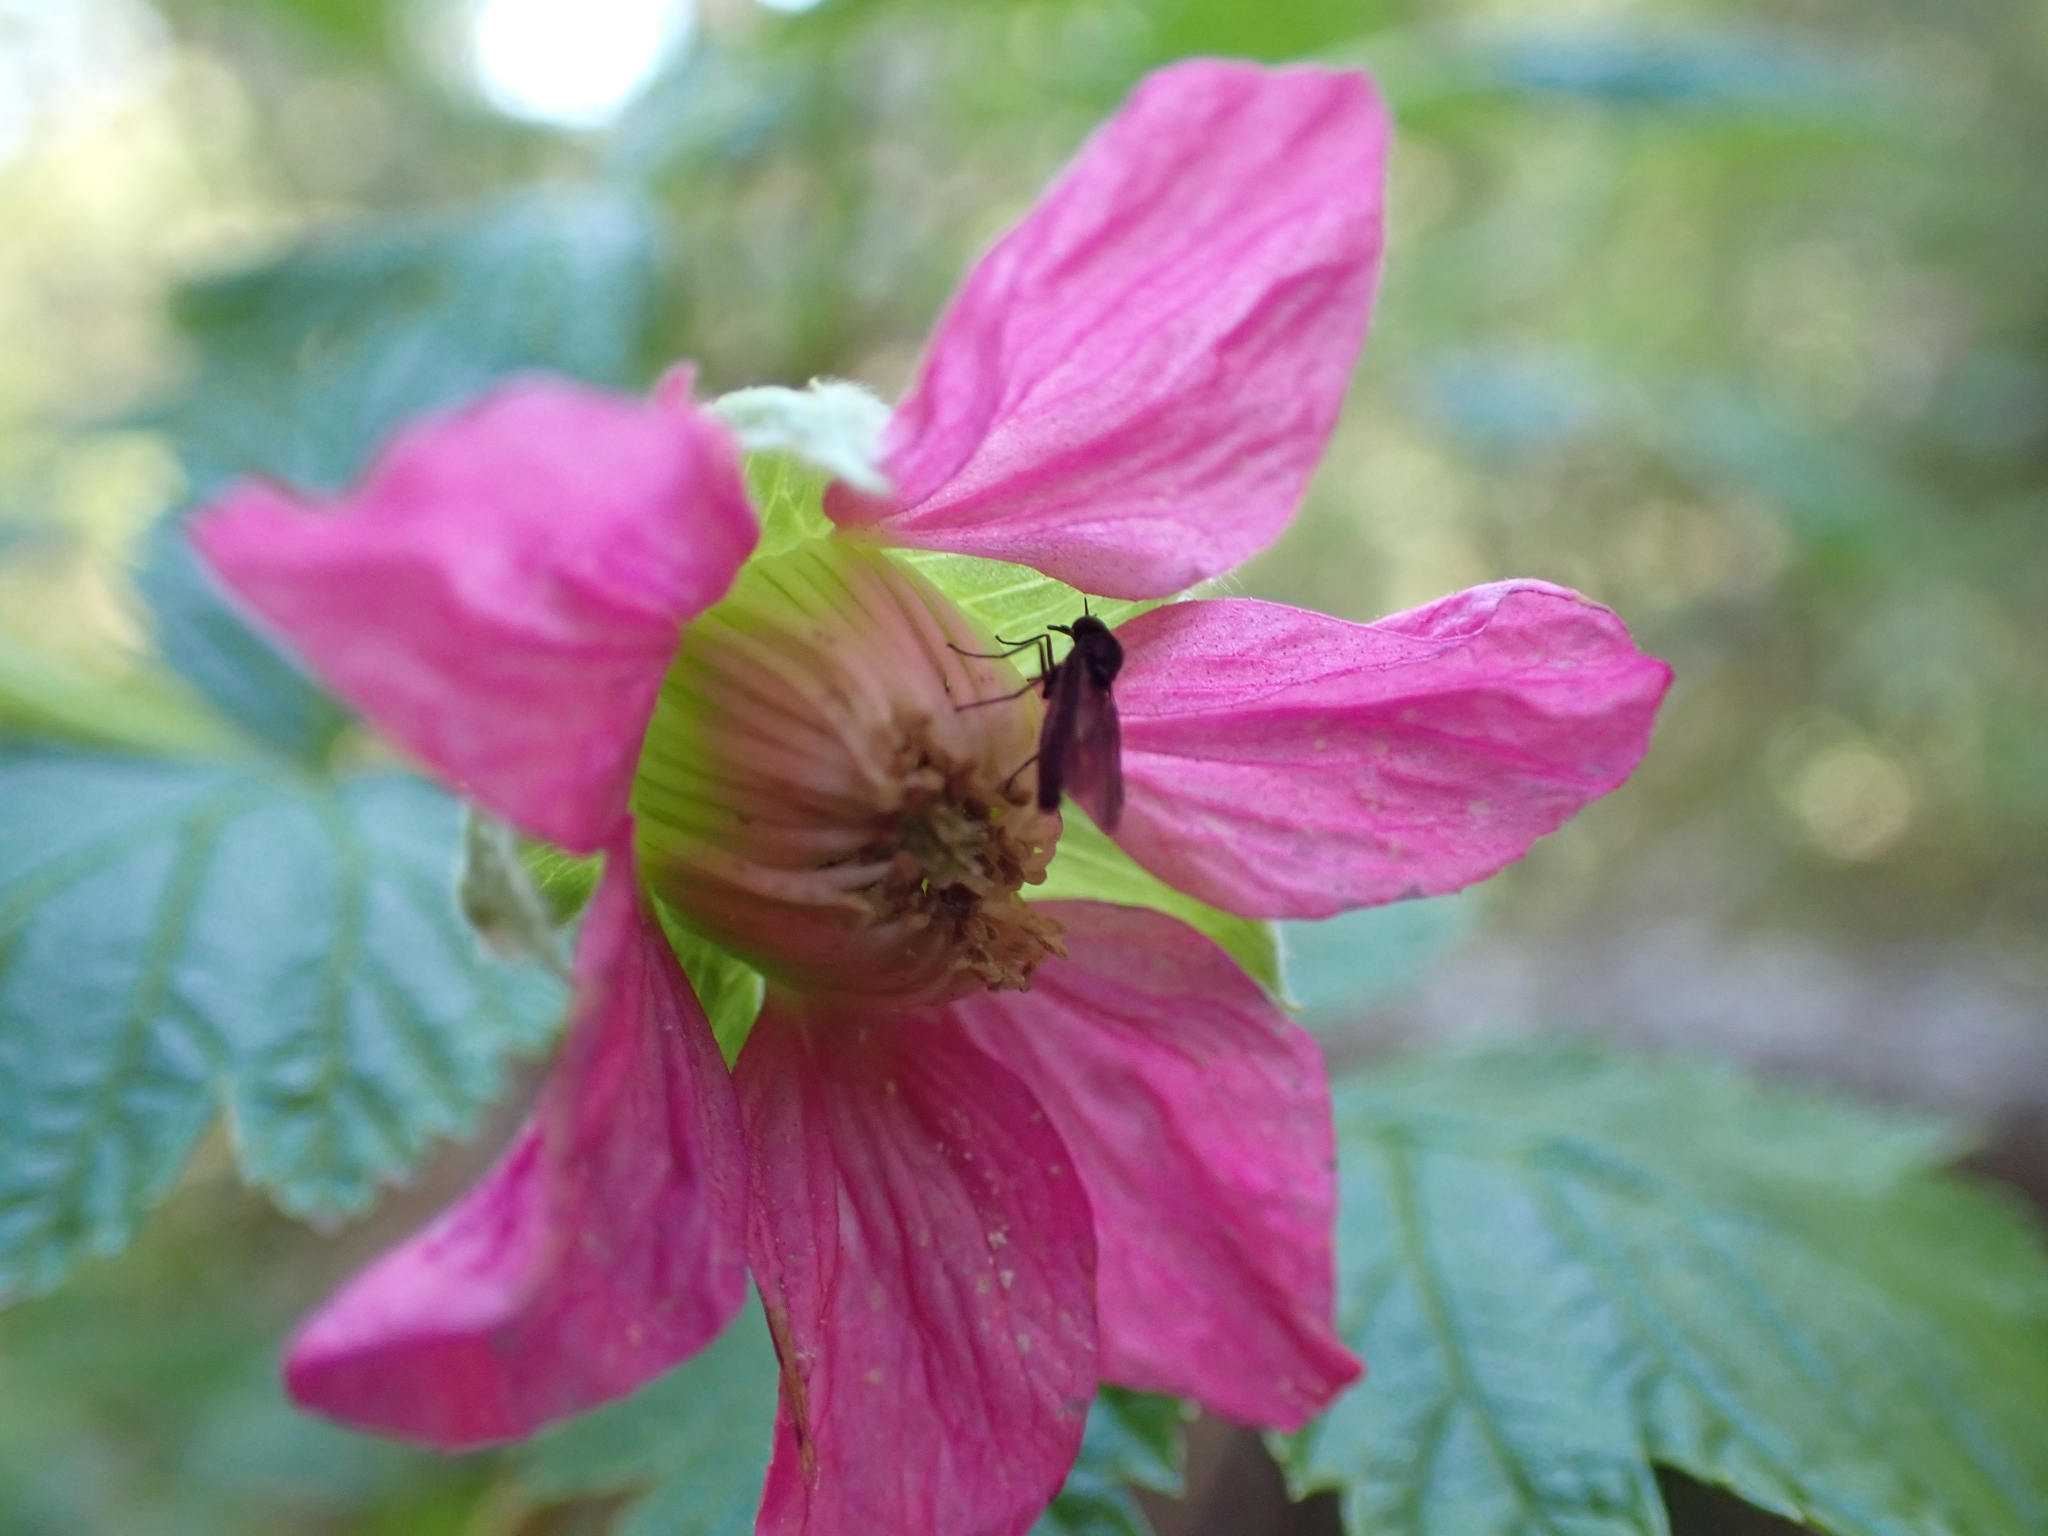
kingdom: Plantae
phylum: Tracheophyta
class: Magnoliopsida
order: Rosales
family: Rosaceae
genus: Rubus
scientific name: Rubus spectabilis
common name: Salmonberry
